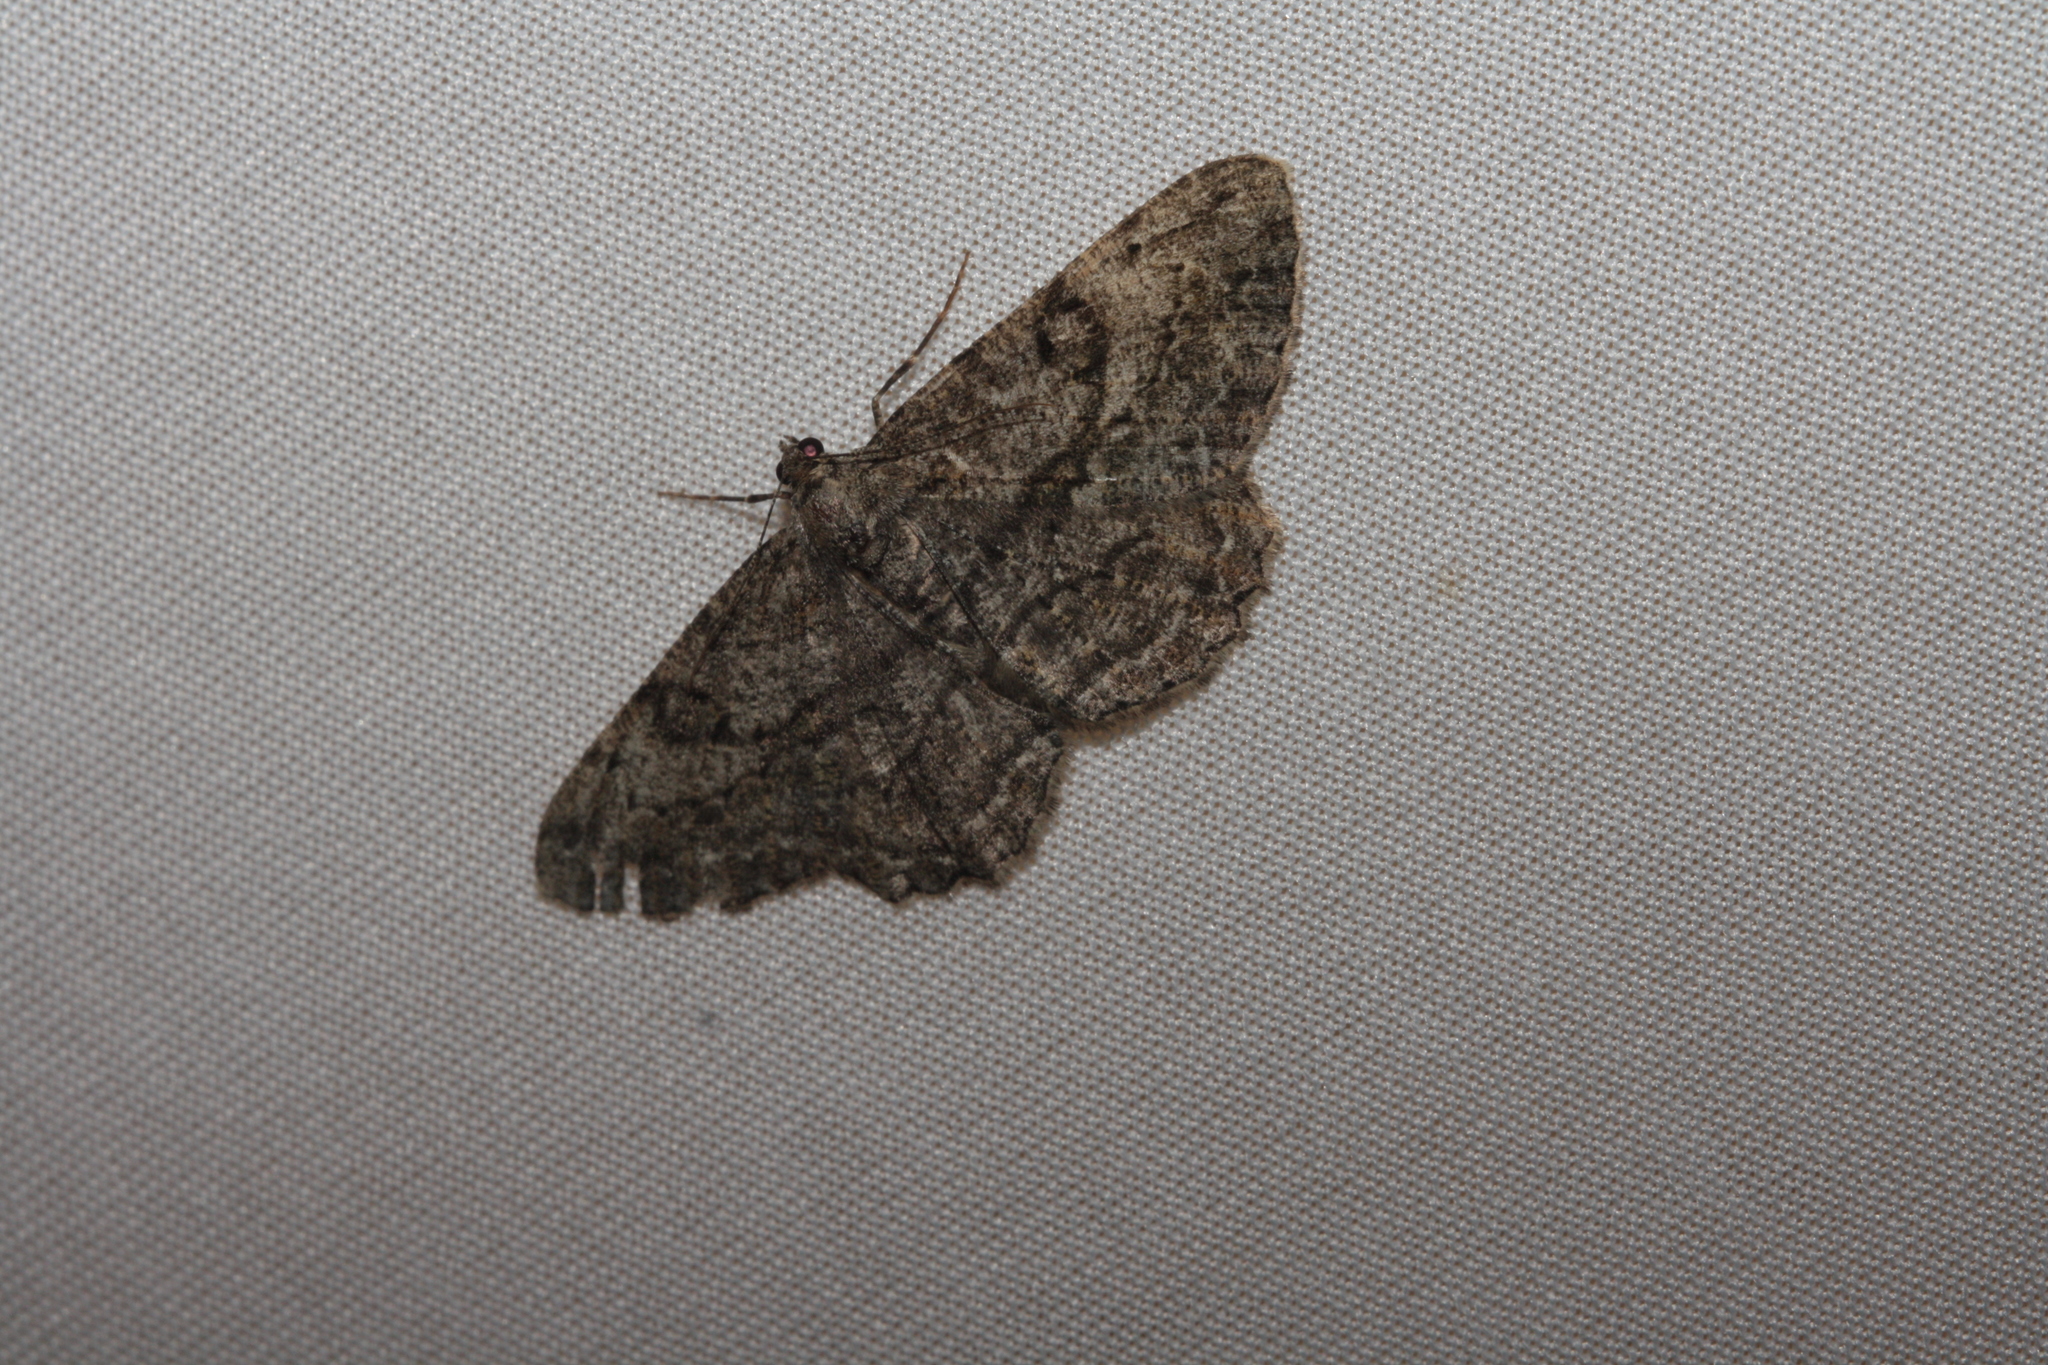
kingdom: Animalia
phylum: Arthropoda
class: Insecta
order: Lepidoptera
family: Geometridae
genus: Peribatodes
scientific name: Peribatodes rhomboidaria
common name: Willow beauty
